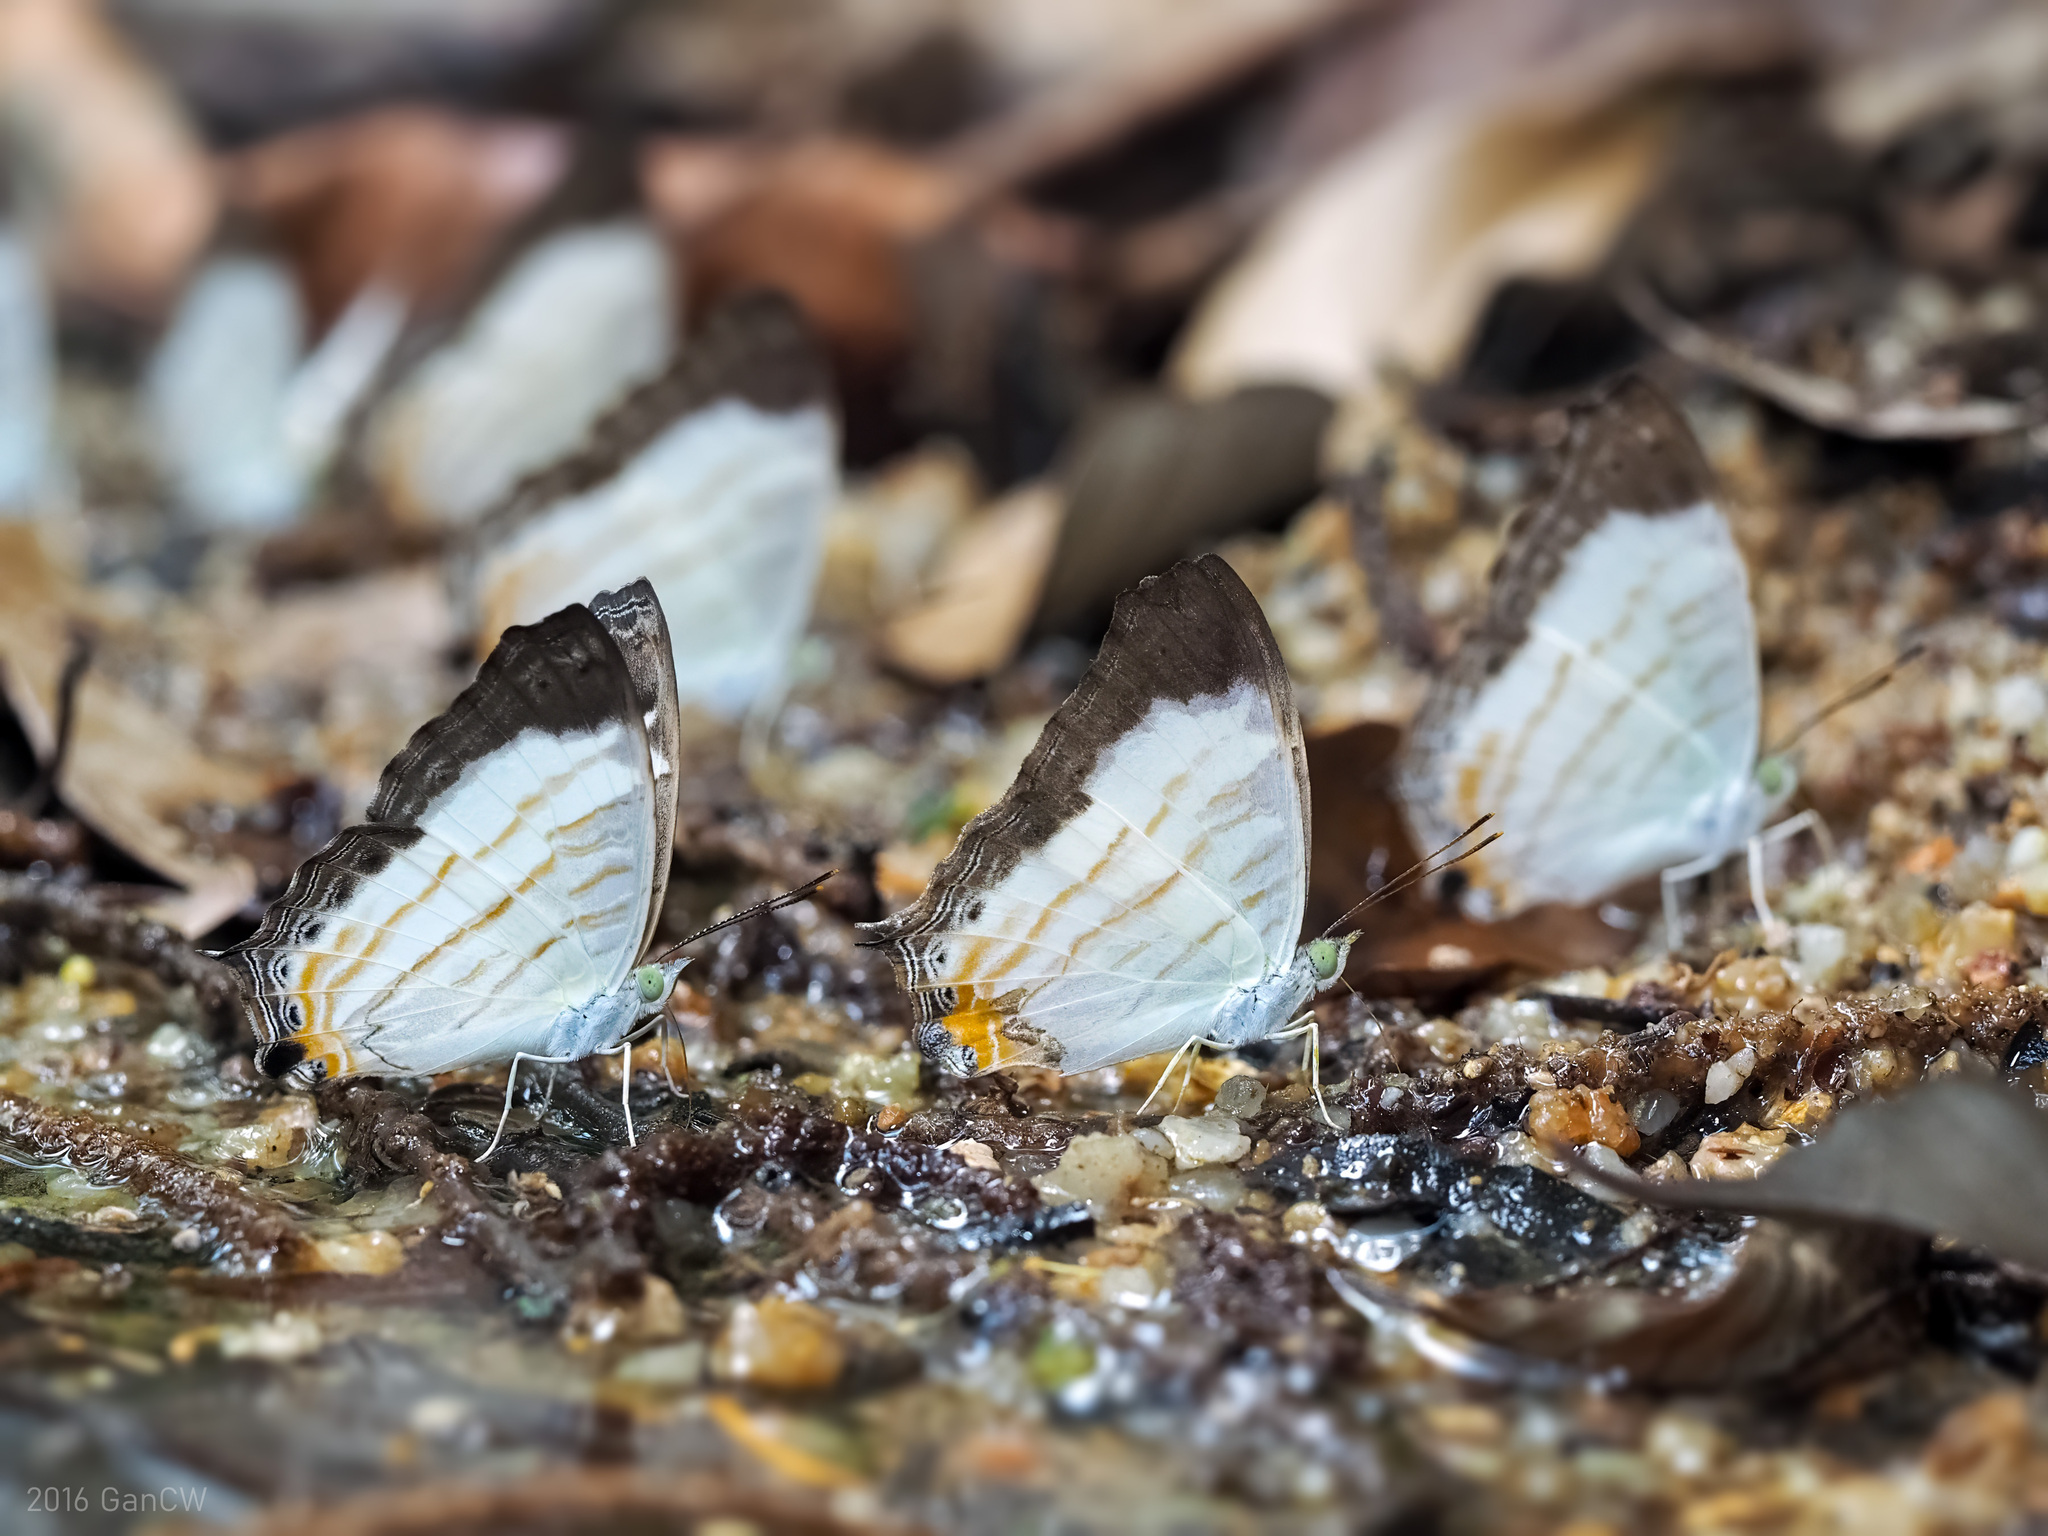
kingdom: Animalia
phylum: Arthropoda
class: Insecta
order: Lepidoptera
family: Nymphalidae
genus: Cyrestis
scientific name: Cyrestis themire
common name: Little mapwing
